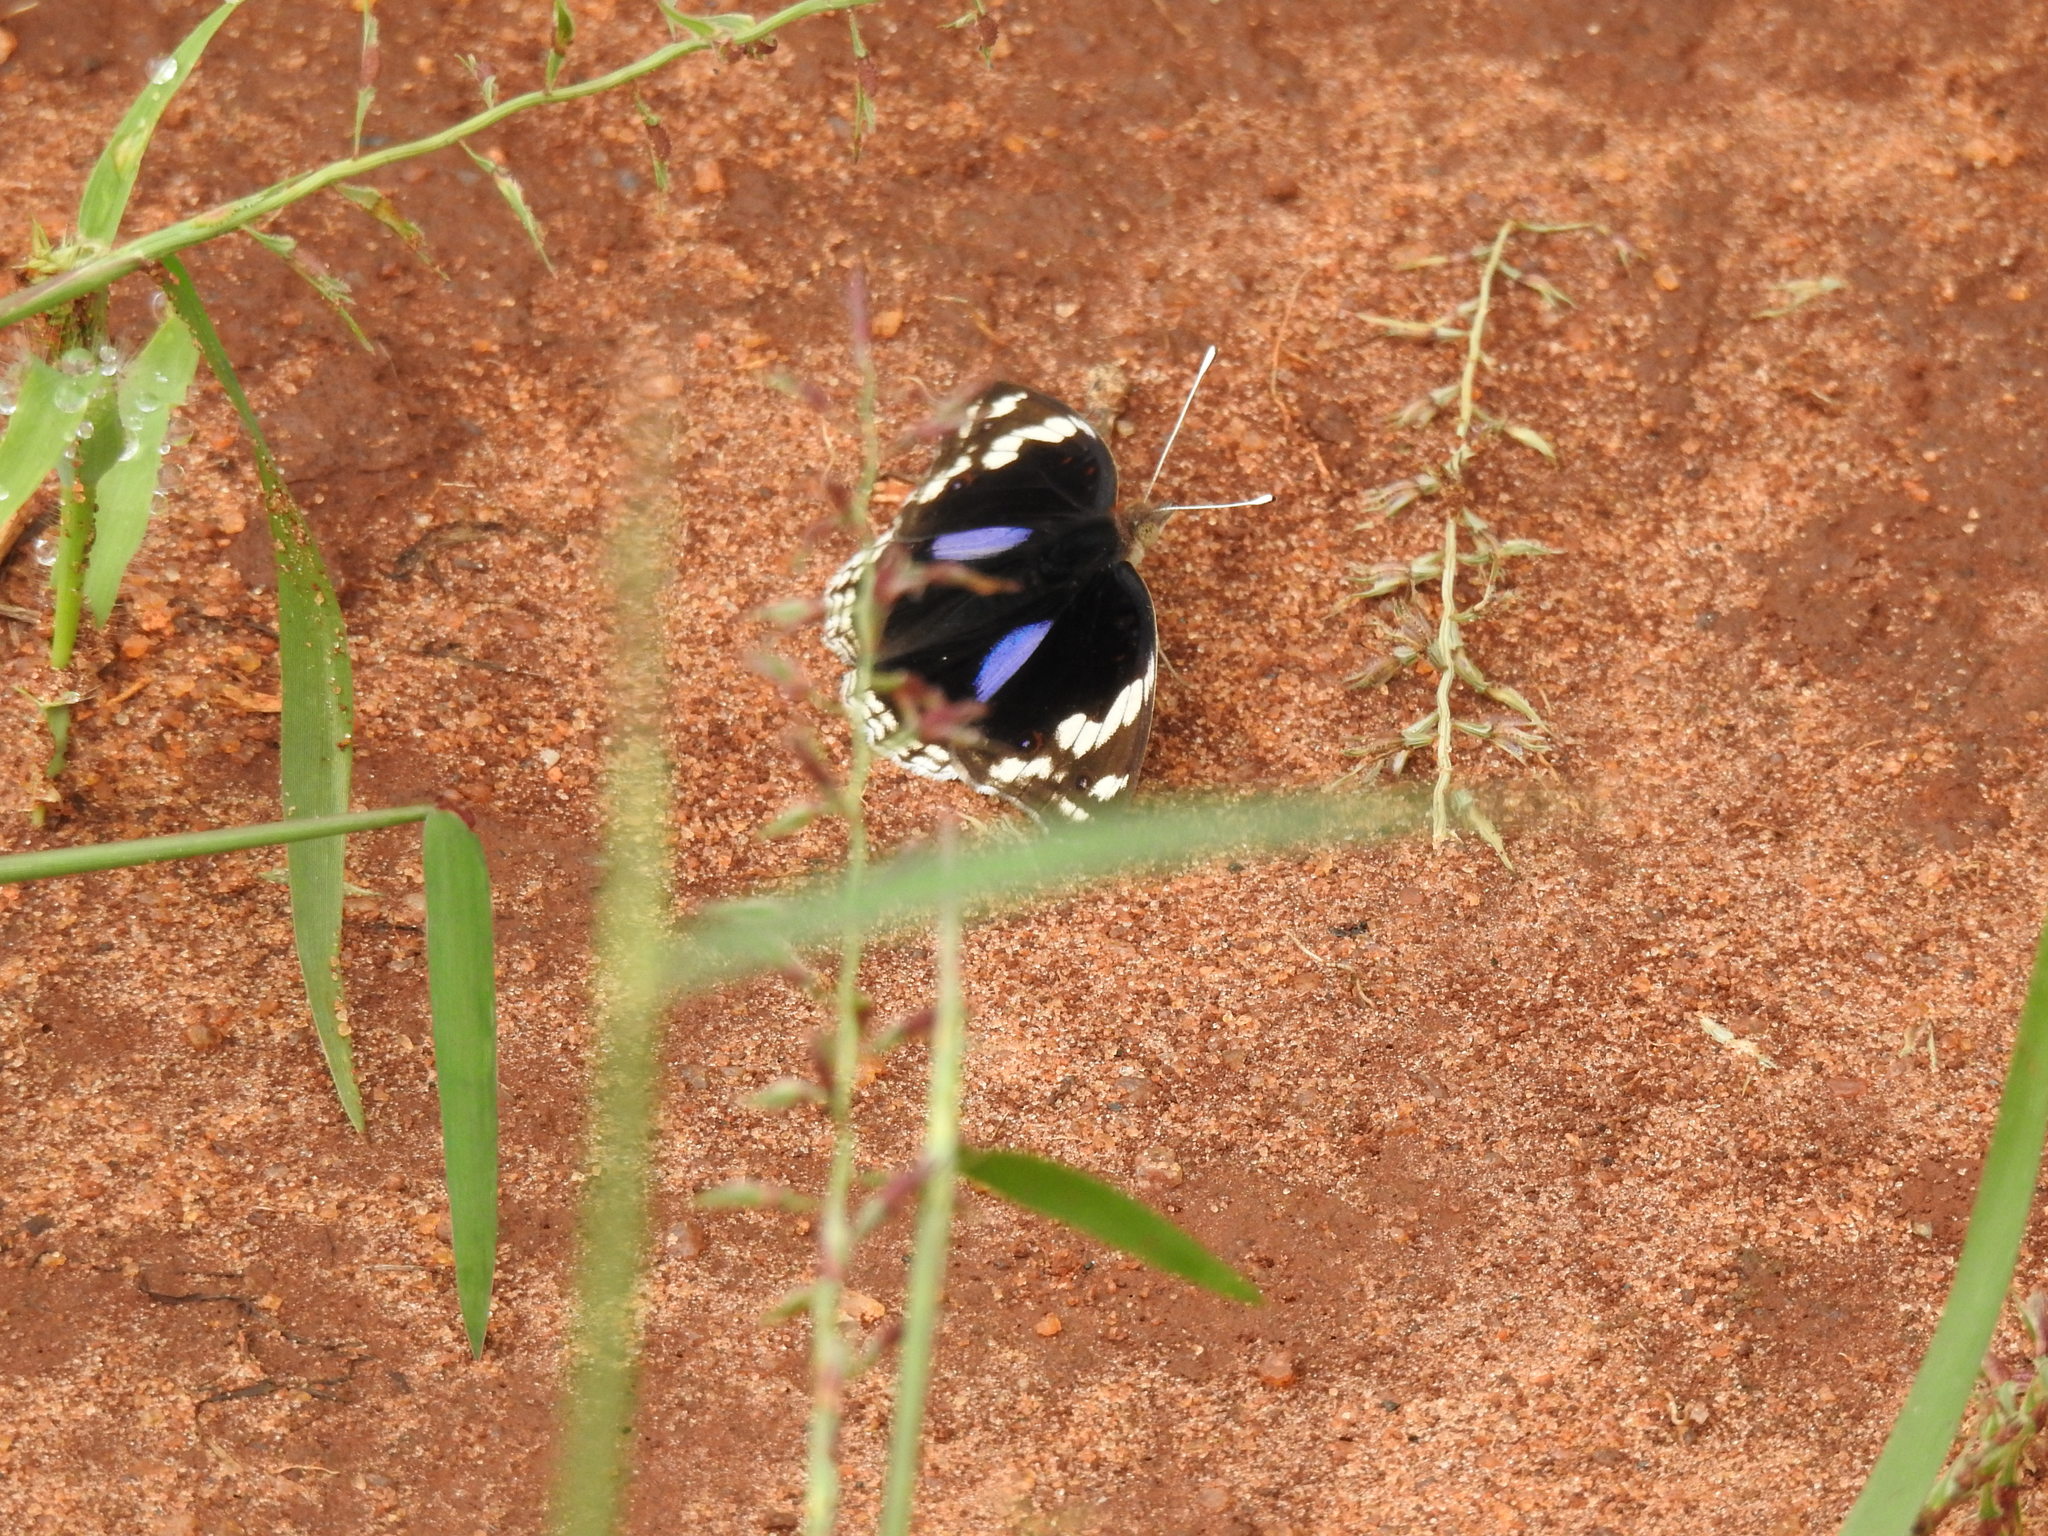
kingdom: Animalia
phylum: Arthropoda
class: Insecta
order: Lepidoptera
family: Nymphalidae
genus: Junonia
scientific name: Junonia oenone
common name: Dark blue pansy
